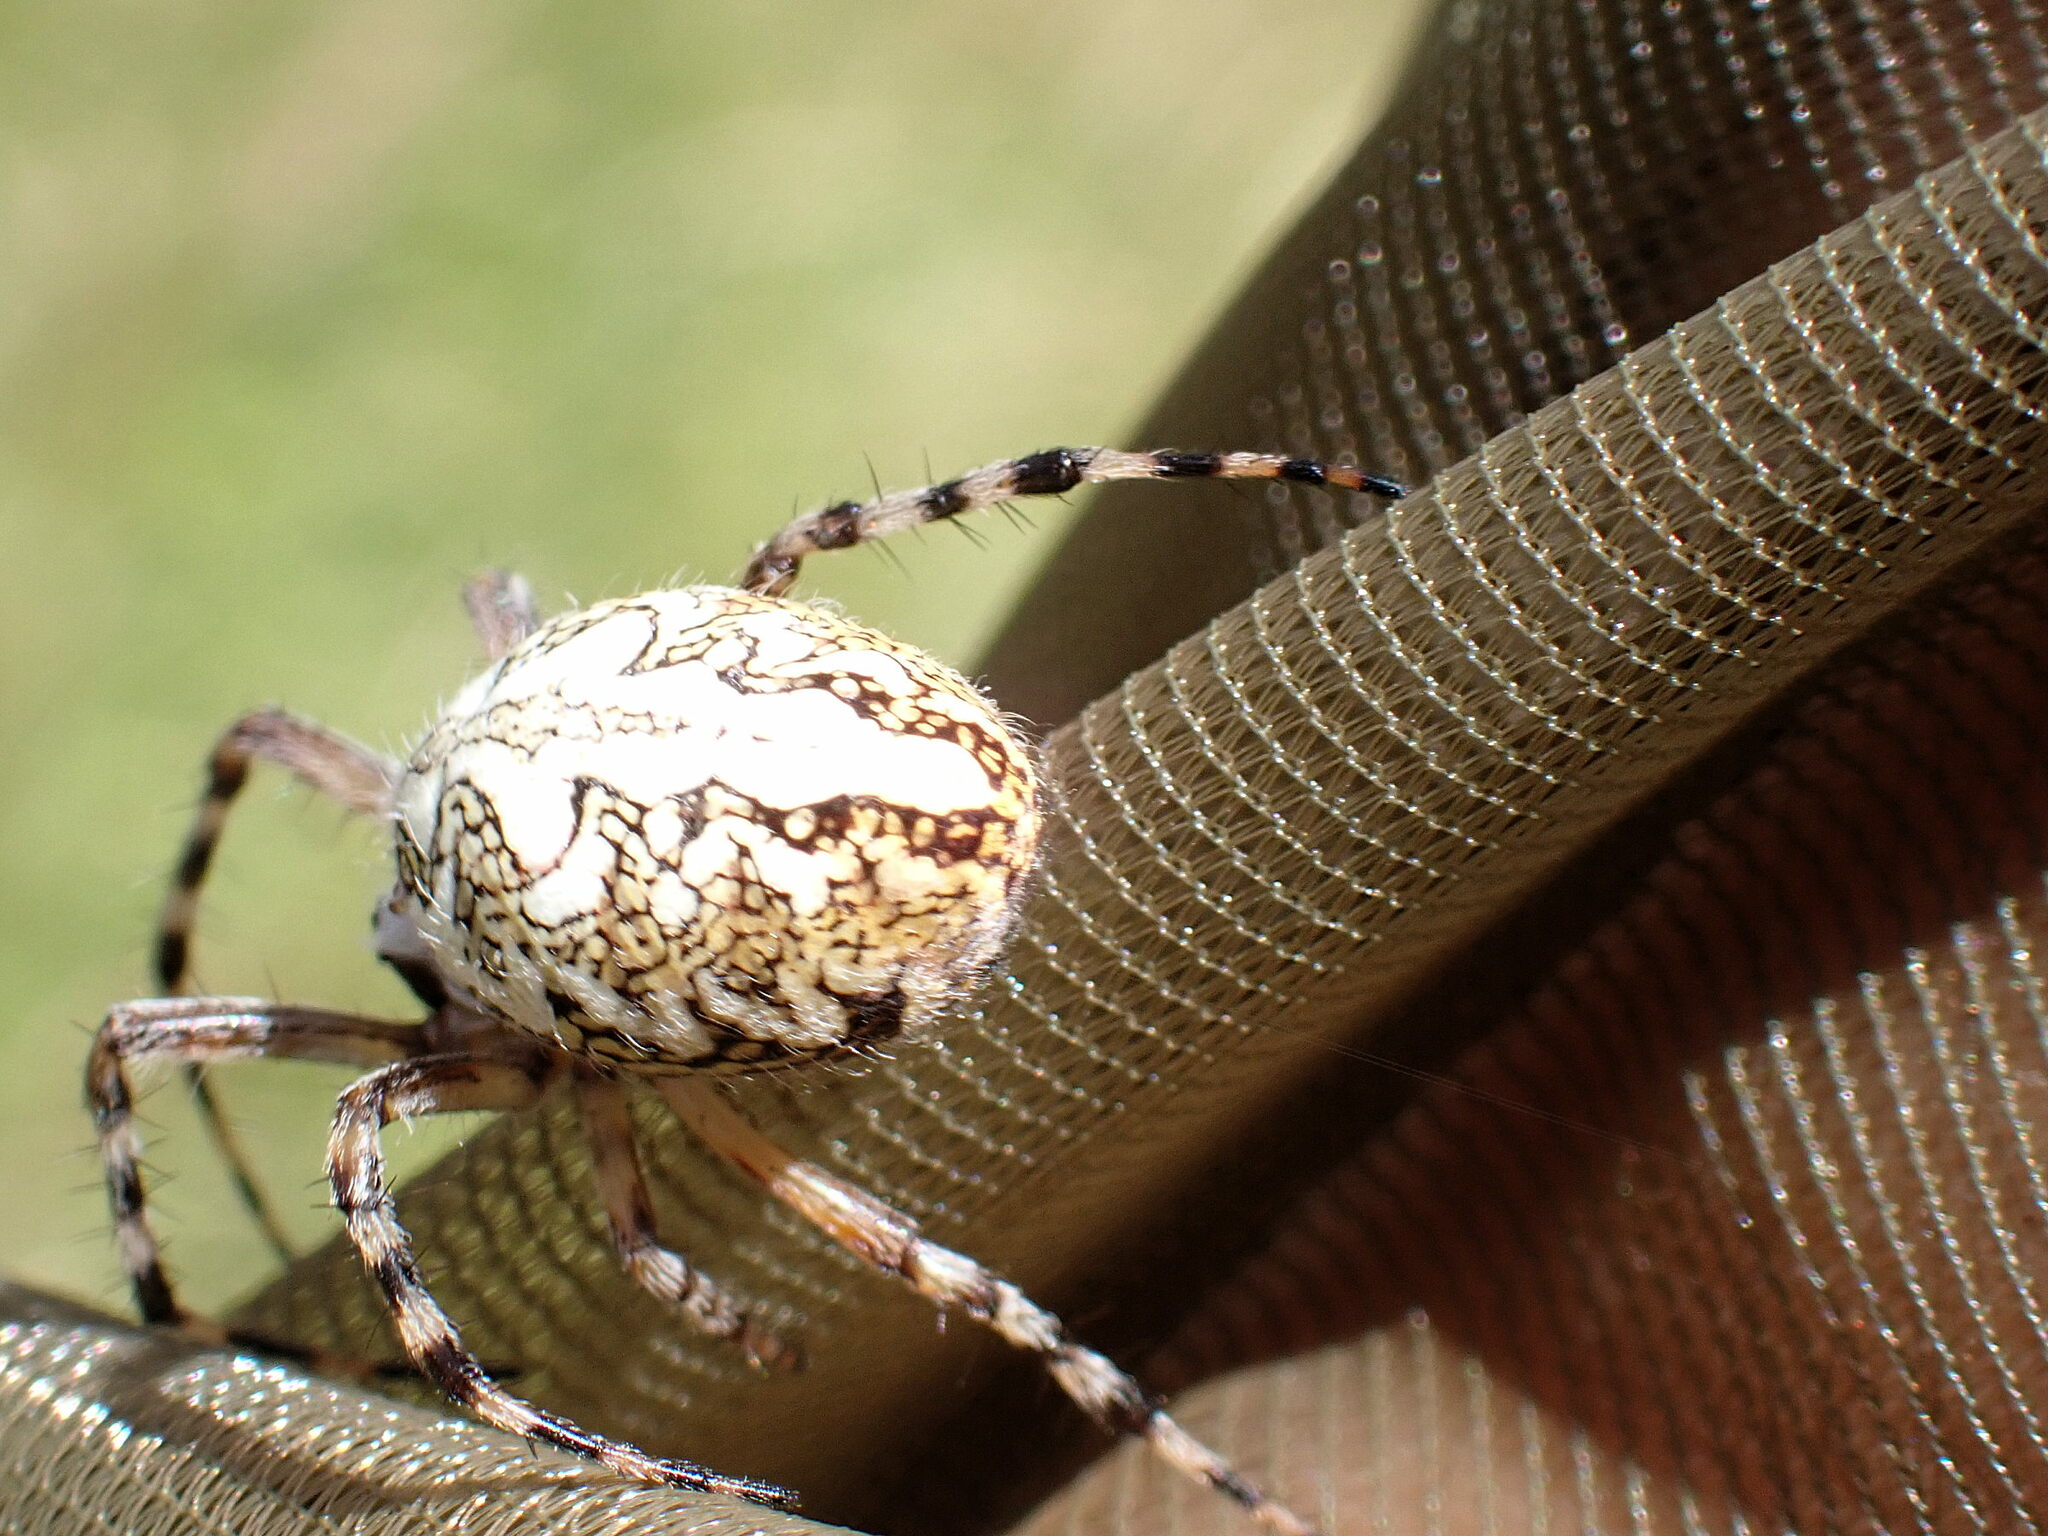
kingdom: Animalia
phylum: Arthropoda
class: Arachnida
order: Araneae
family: Araneidae
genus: Aculepeira
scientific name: Aculepeira ceropegia
